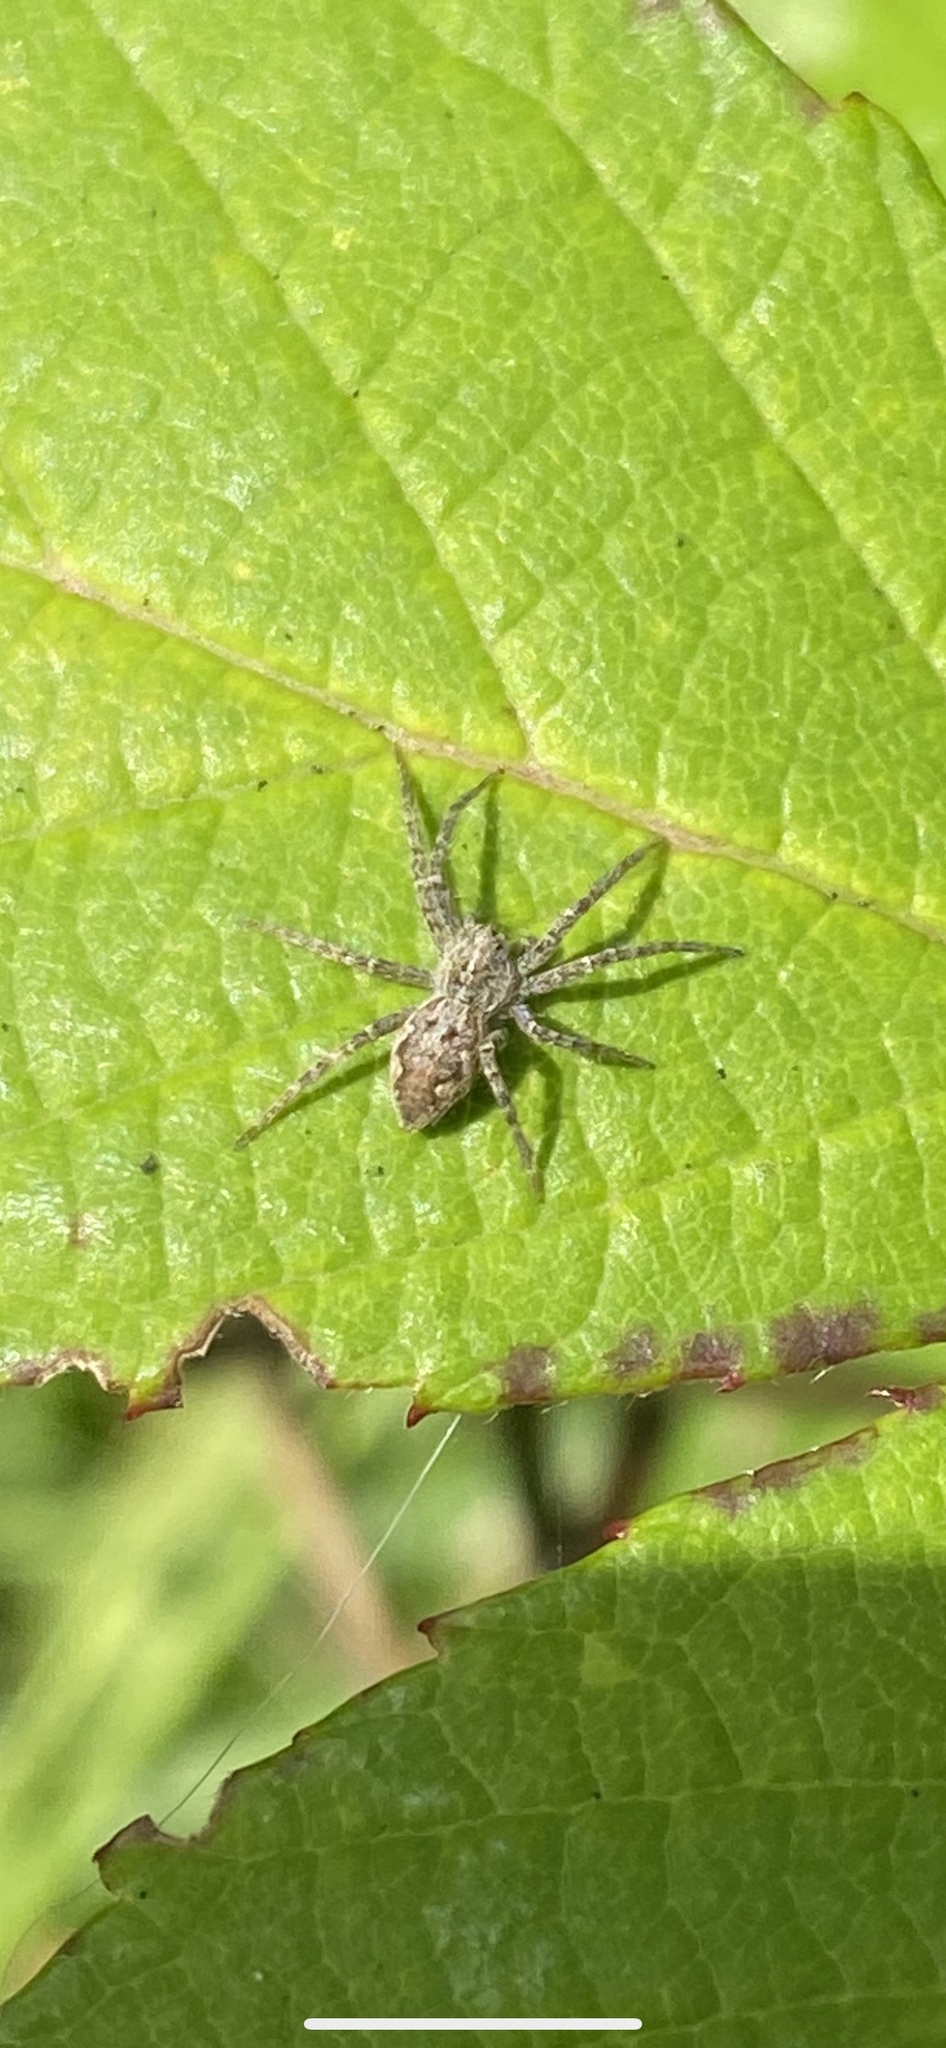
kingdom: Animalia
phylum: Arthropoda
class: Arachnida
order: Araneae
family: Pisauridae
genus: Pisaura
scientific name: Pisaura mirabilis
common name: Tent spider
